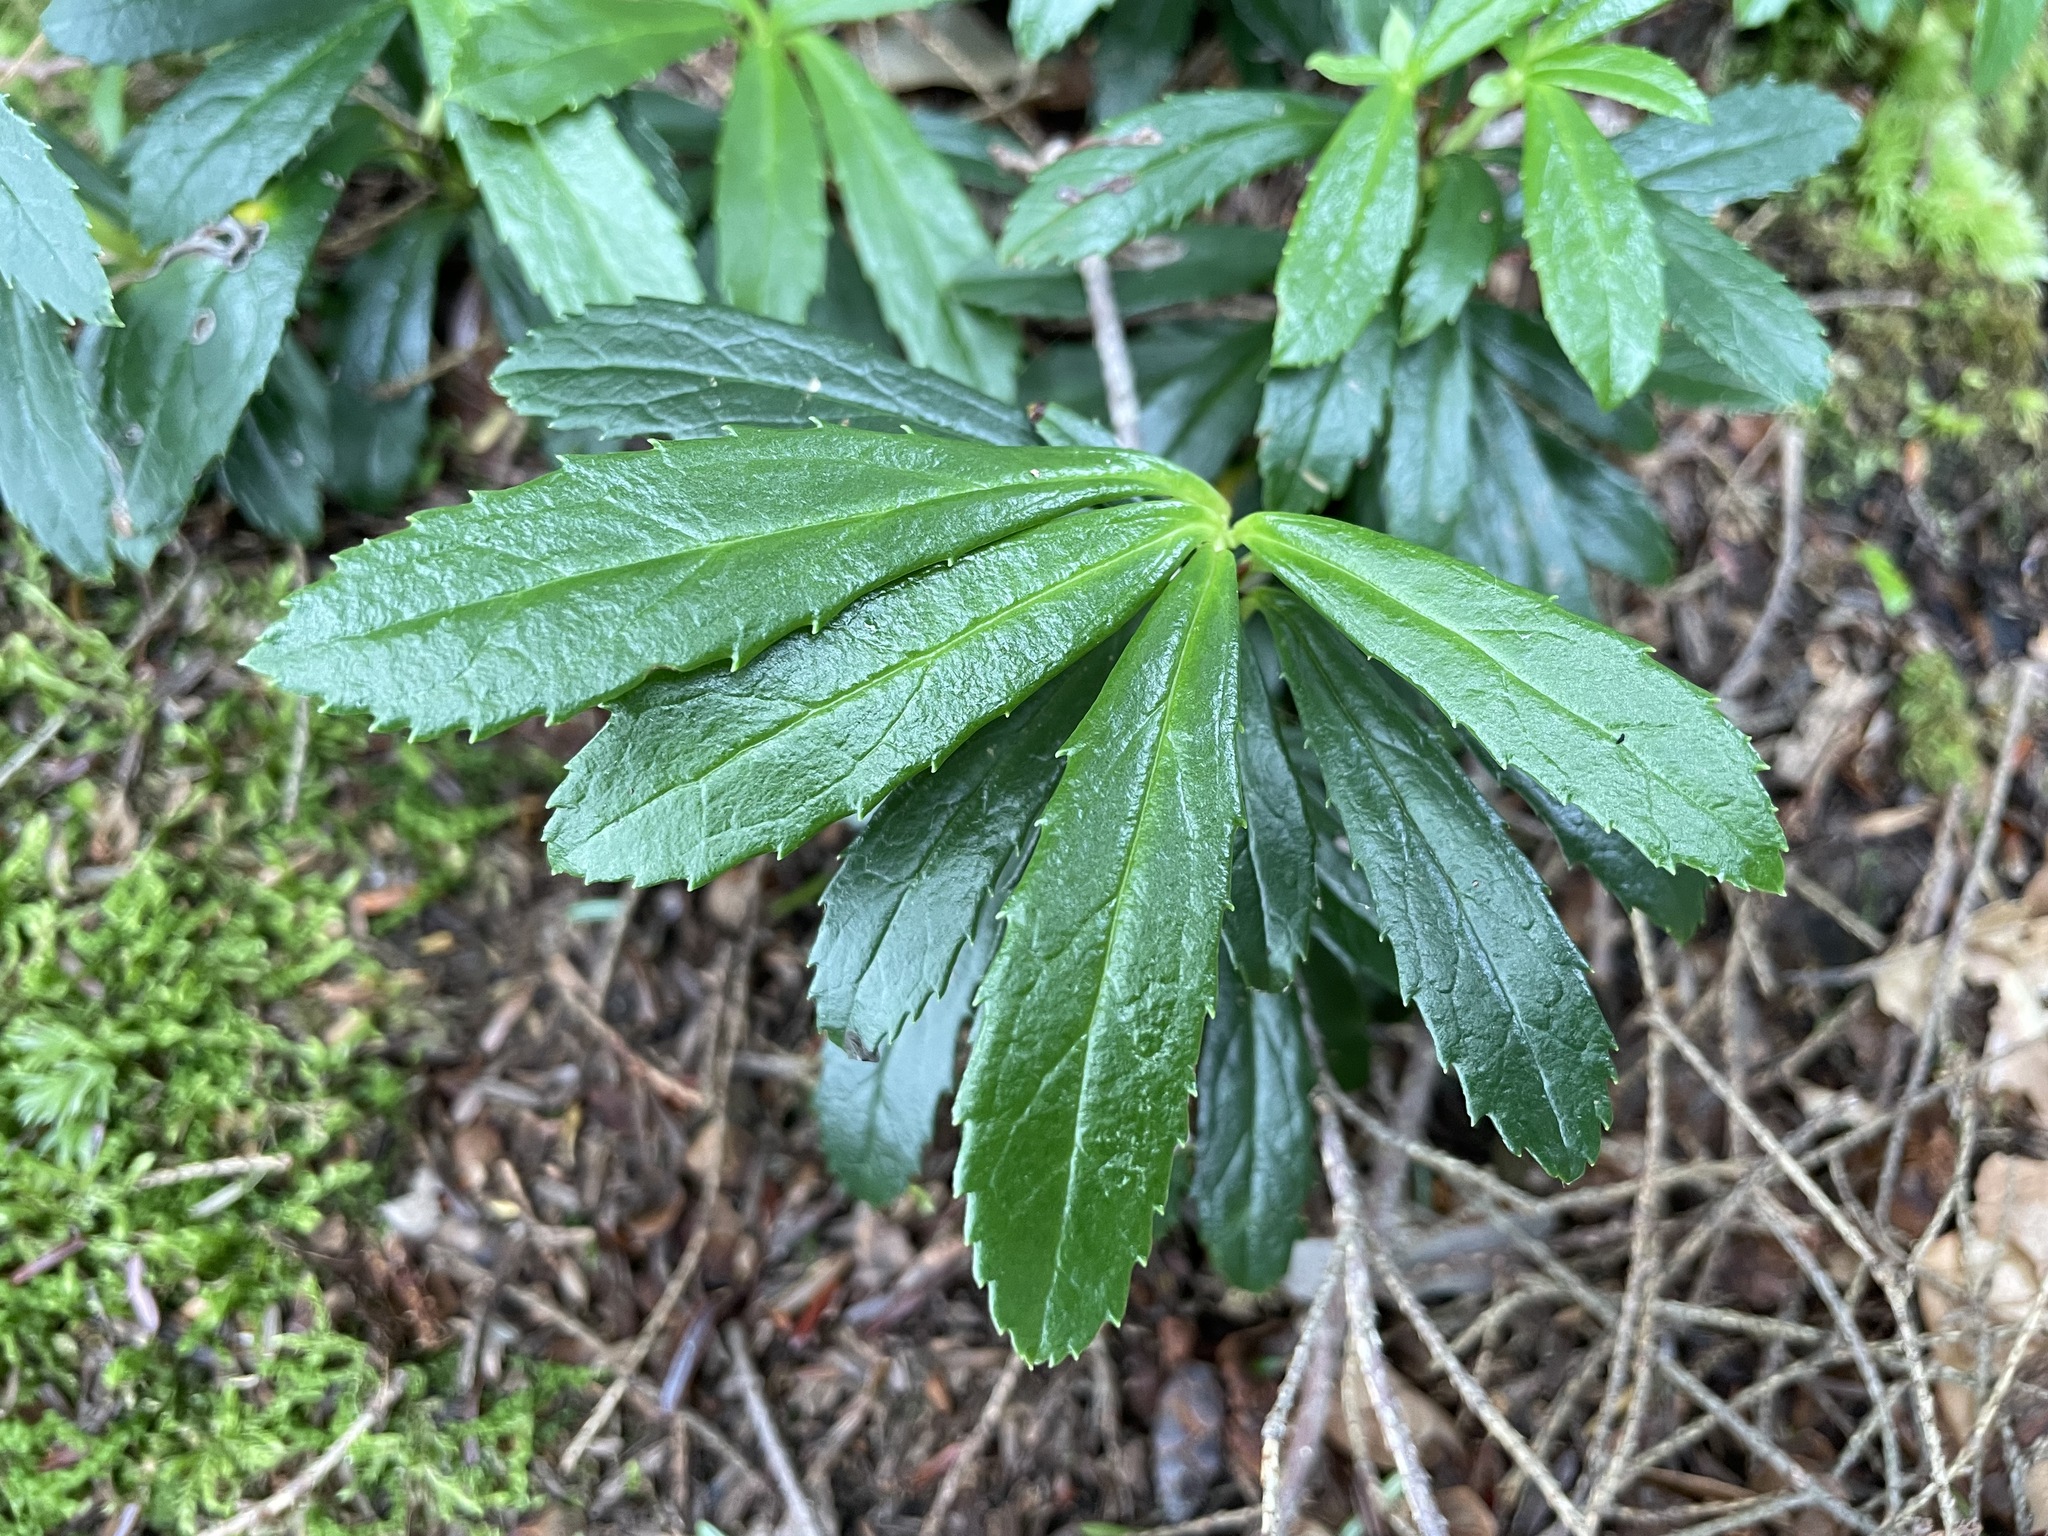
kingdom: Plantae
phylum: Tracheophyta
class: Magnoliopsida
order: Ericales
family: Ericaceae
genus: Chimaphila
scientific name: Chimaphila umbellata
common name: Pipsissewa
